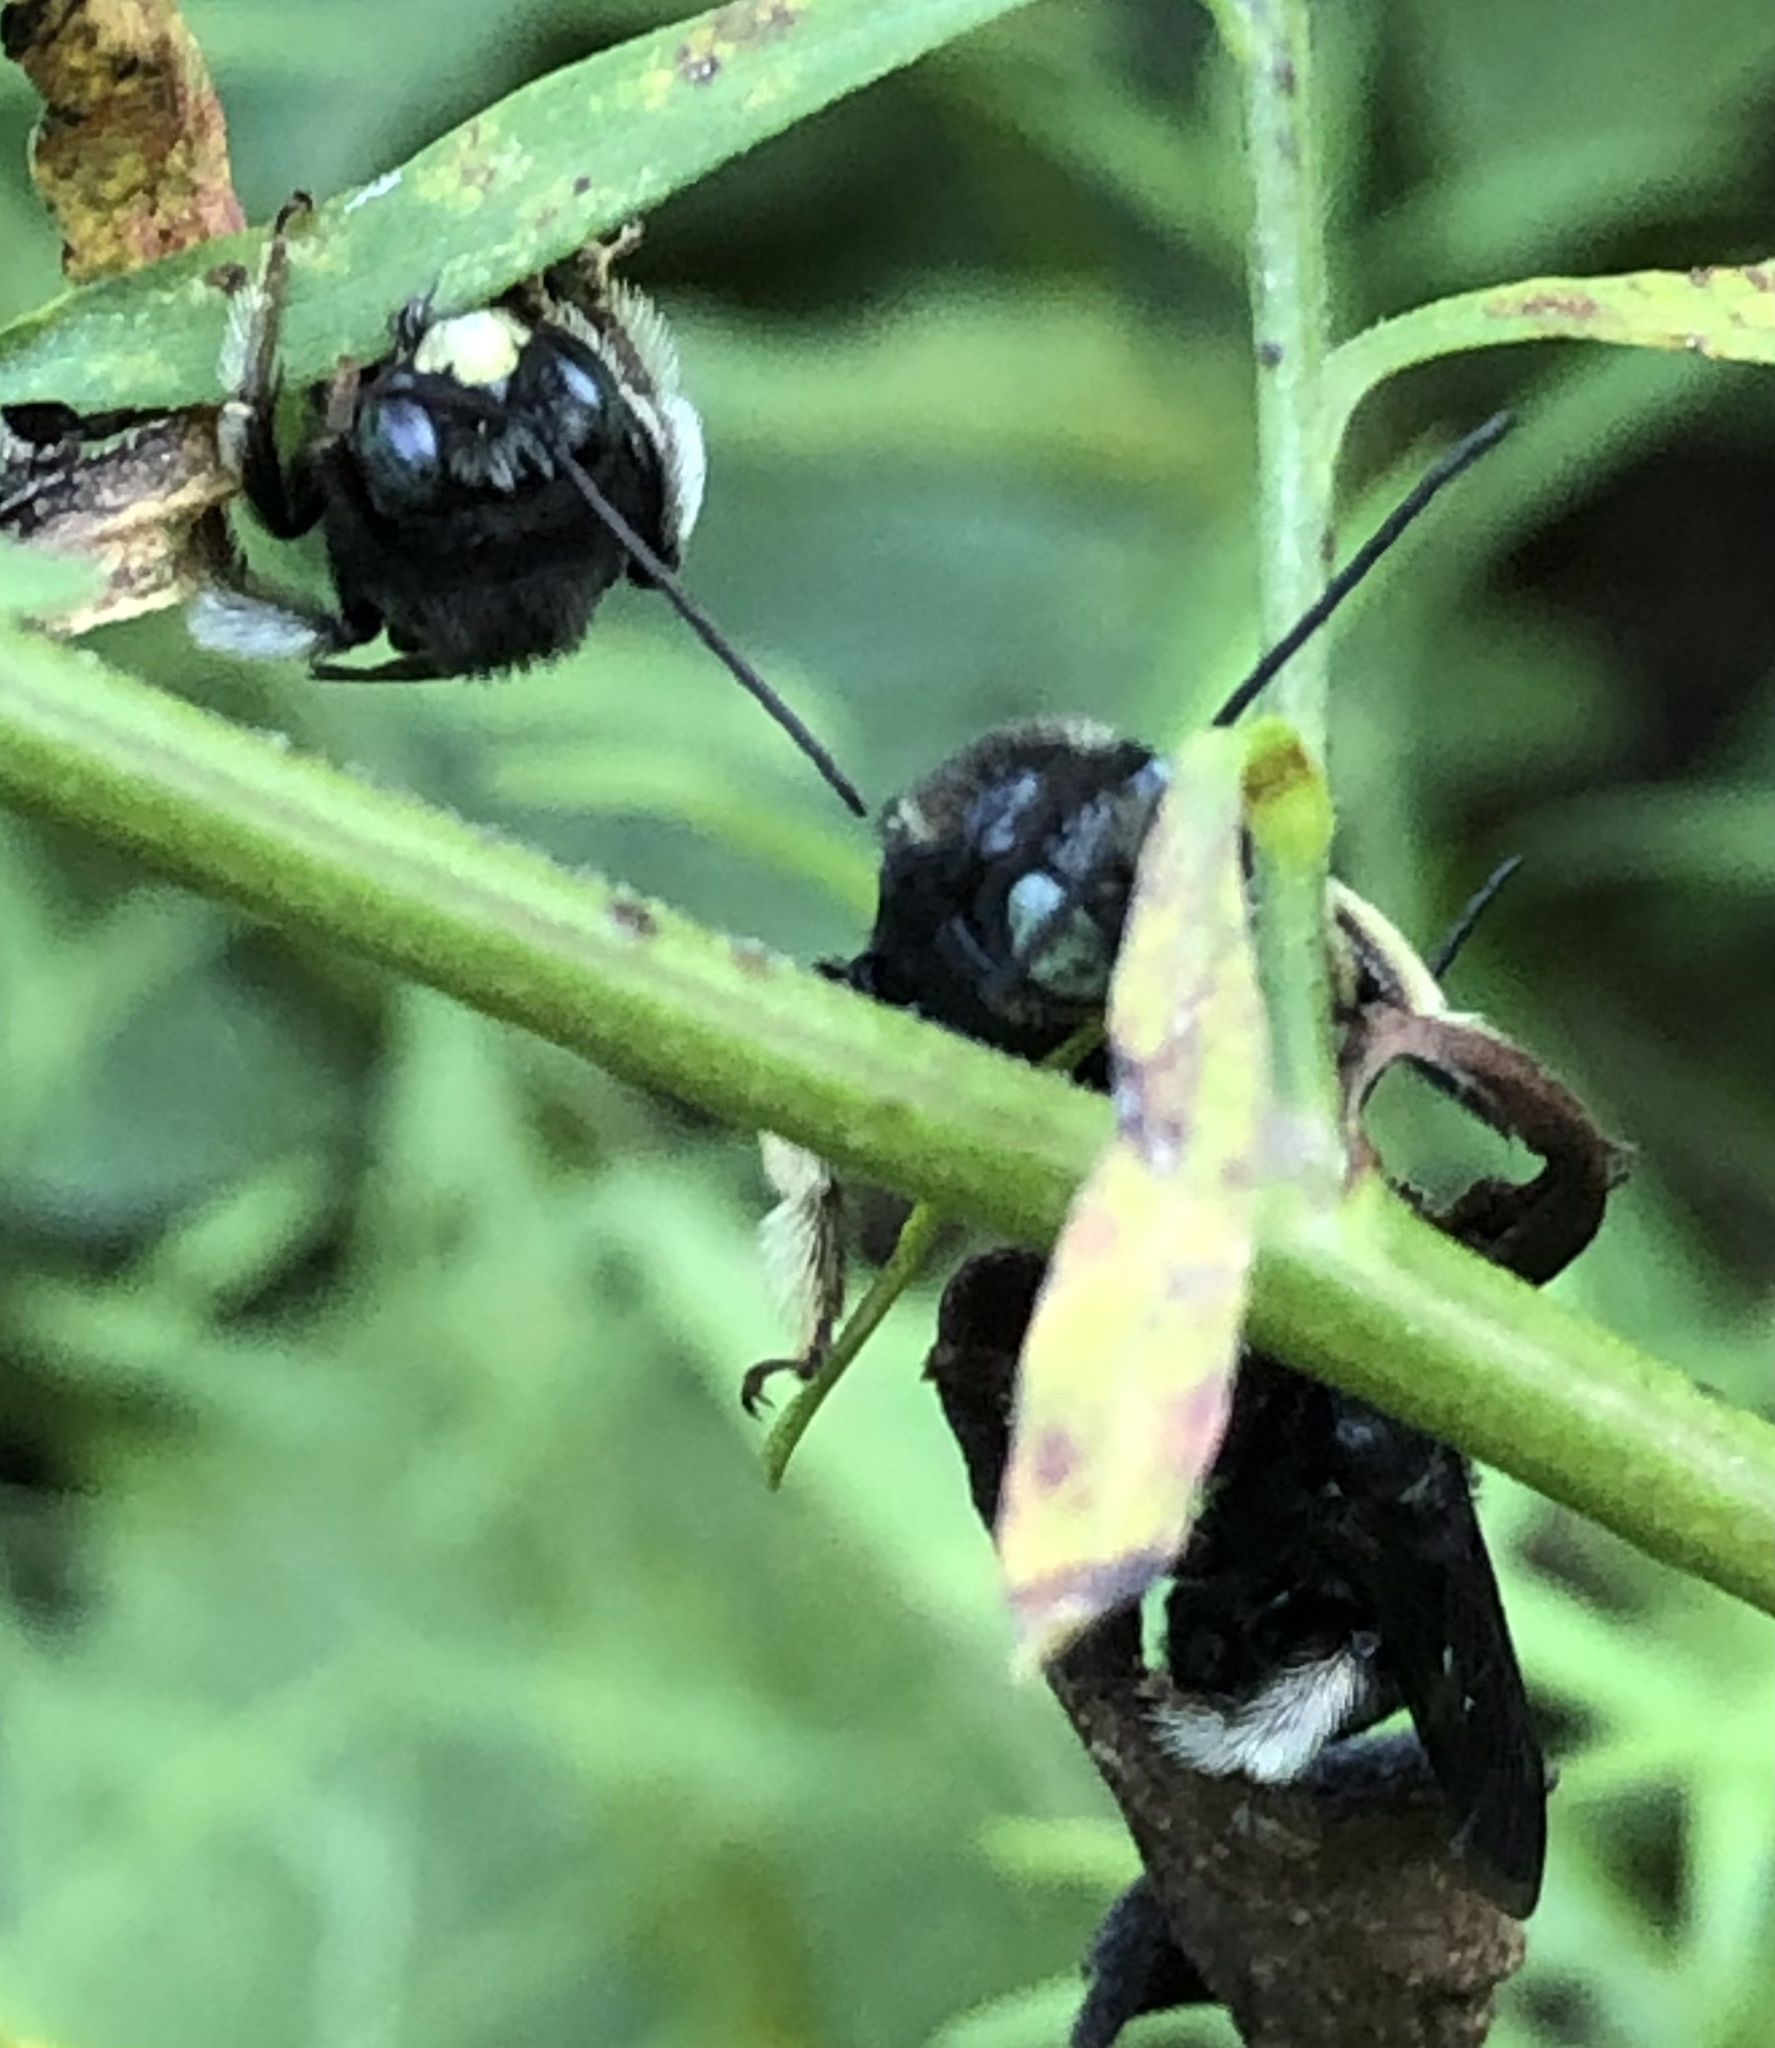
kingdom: Animalia
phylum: Arthropoda
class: Insecta
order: Hymenoptera
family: Apidae
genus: Melissodes
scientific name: Melissodes bimaculatus
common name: Two-spotted long-horned bee
